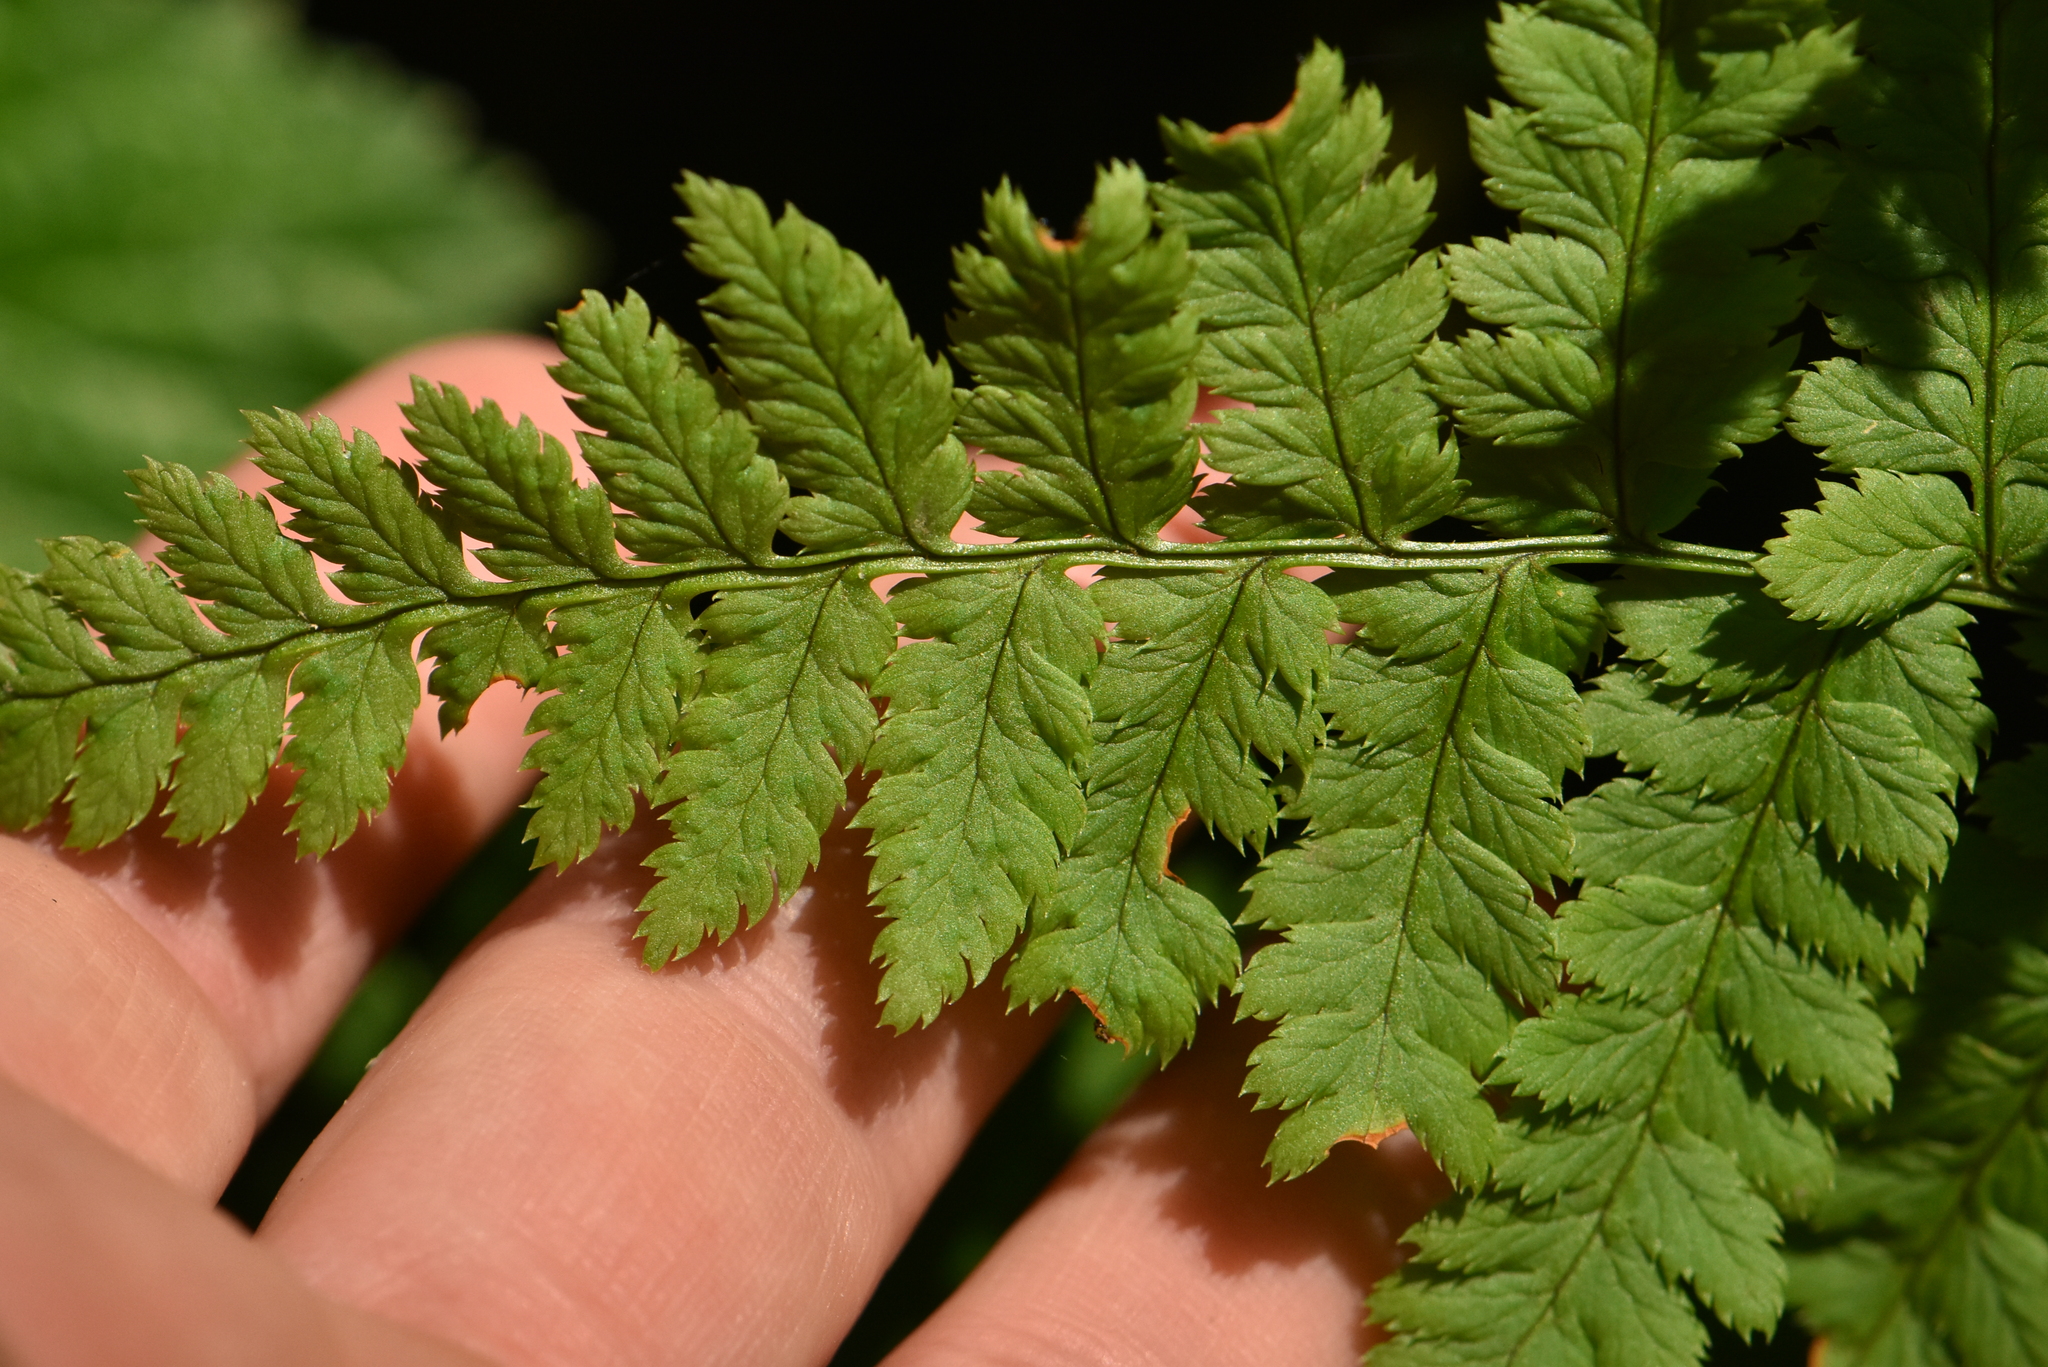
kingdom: Plantae
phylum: Tracheophyta
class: Polypodiopsida
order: Polypodiales
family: Dryopteridaceae
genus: Dryopteris
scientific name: Dryopteris carthusiana
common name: Narrow buckler-fern
